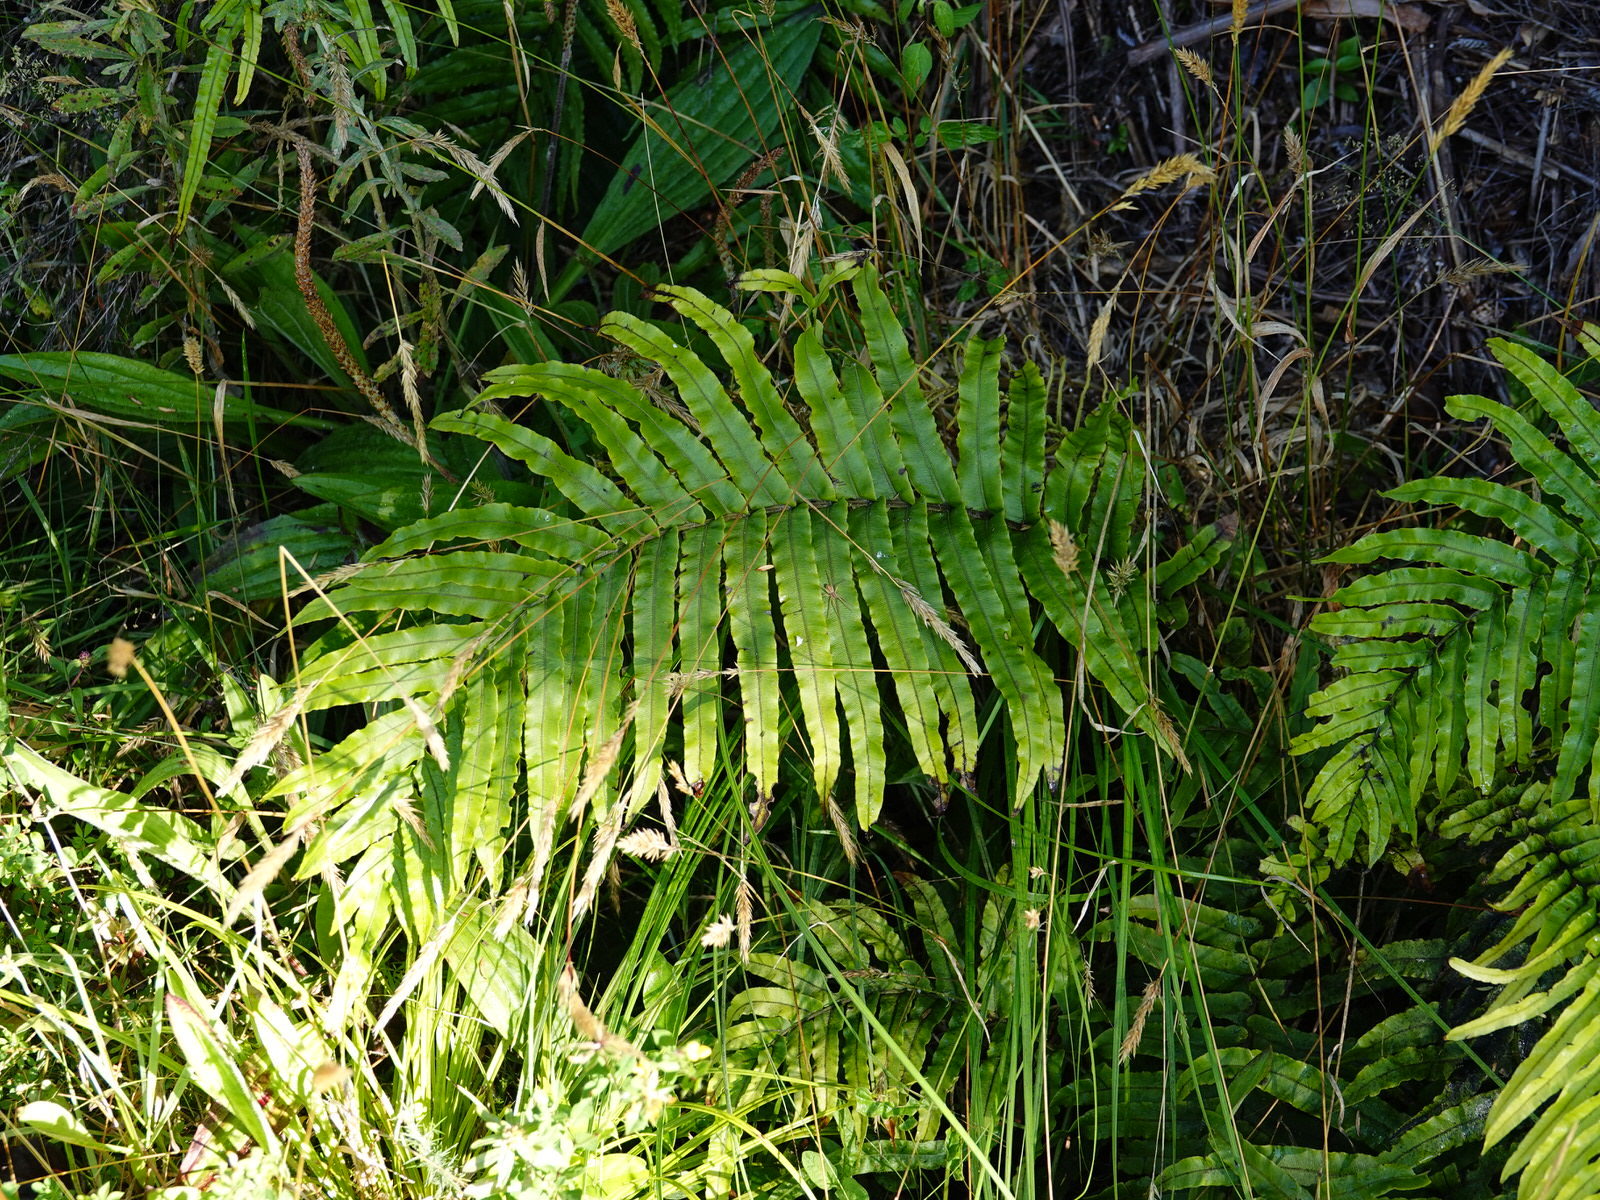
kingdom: Animalia
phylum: Arthropoda
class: Arachnida
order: Araneae
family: Pisauridae
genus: Dolomedes
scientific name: Dolomedes minor
